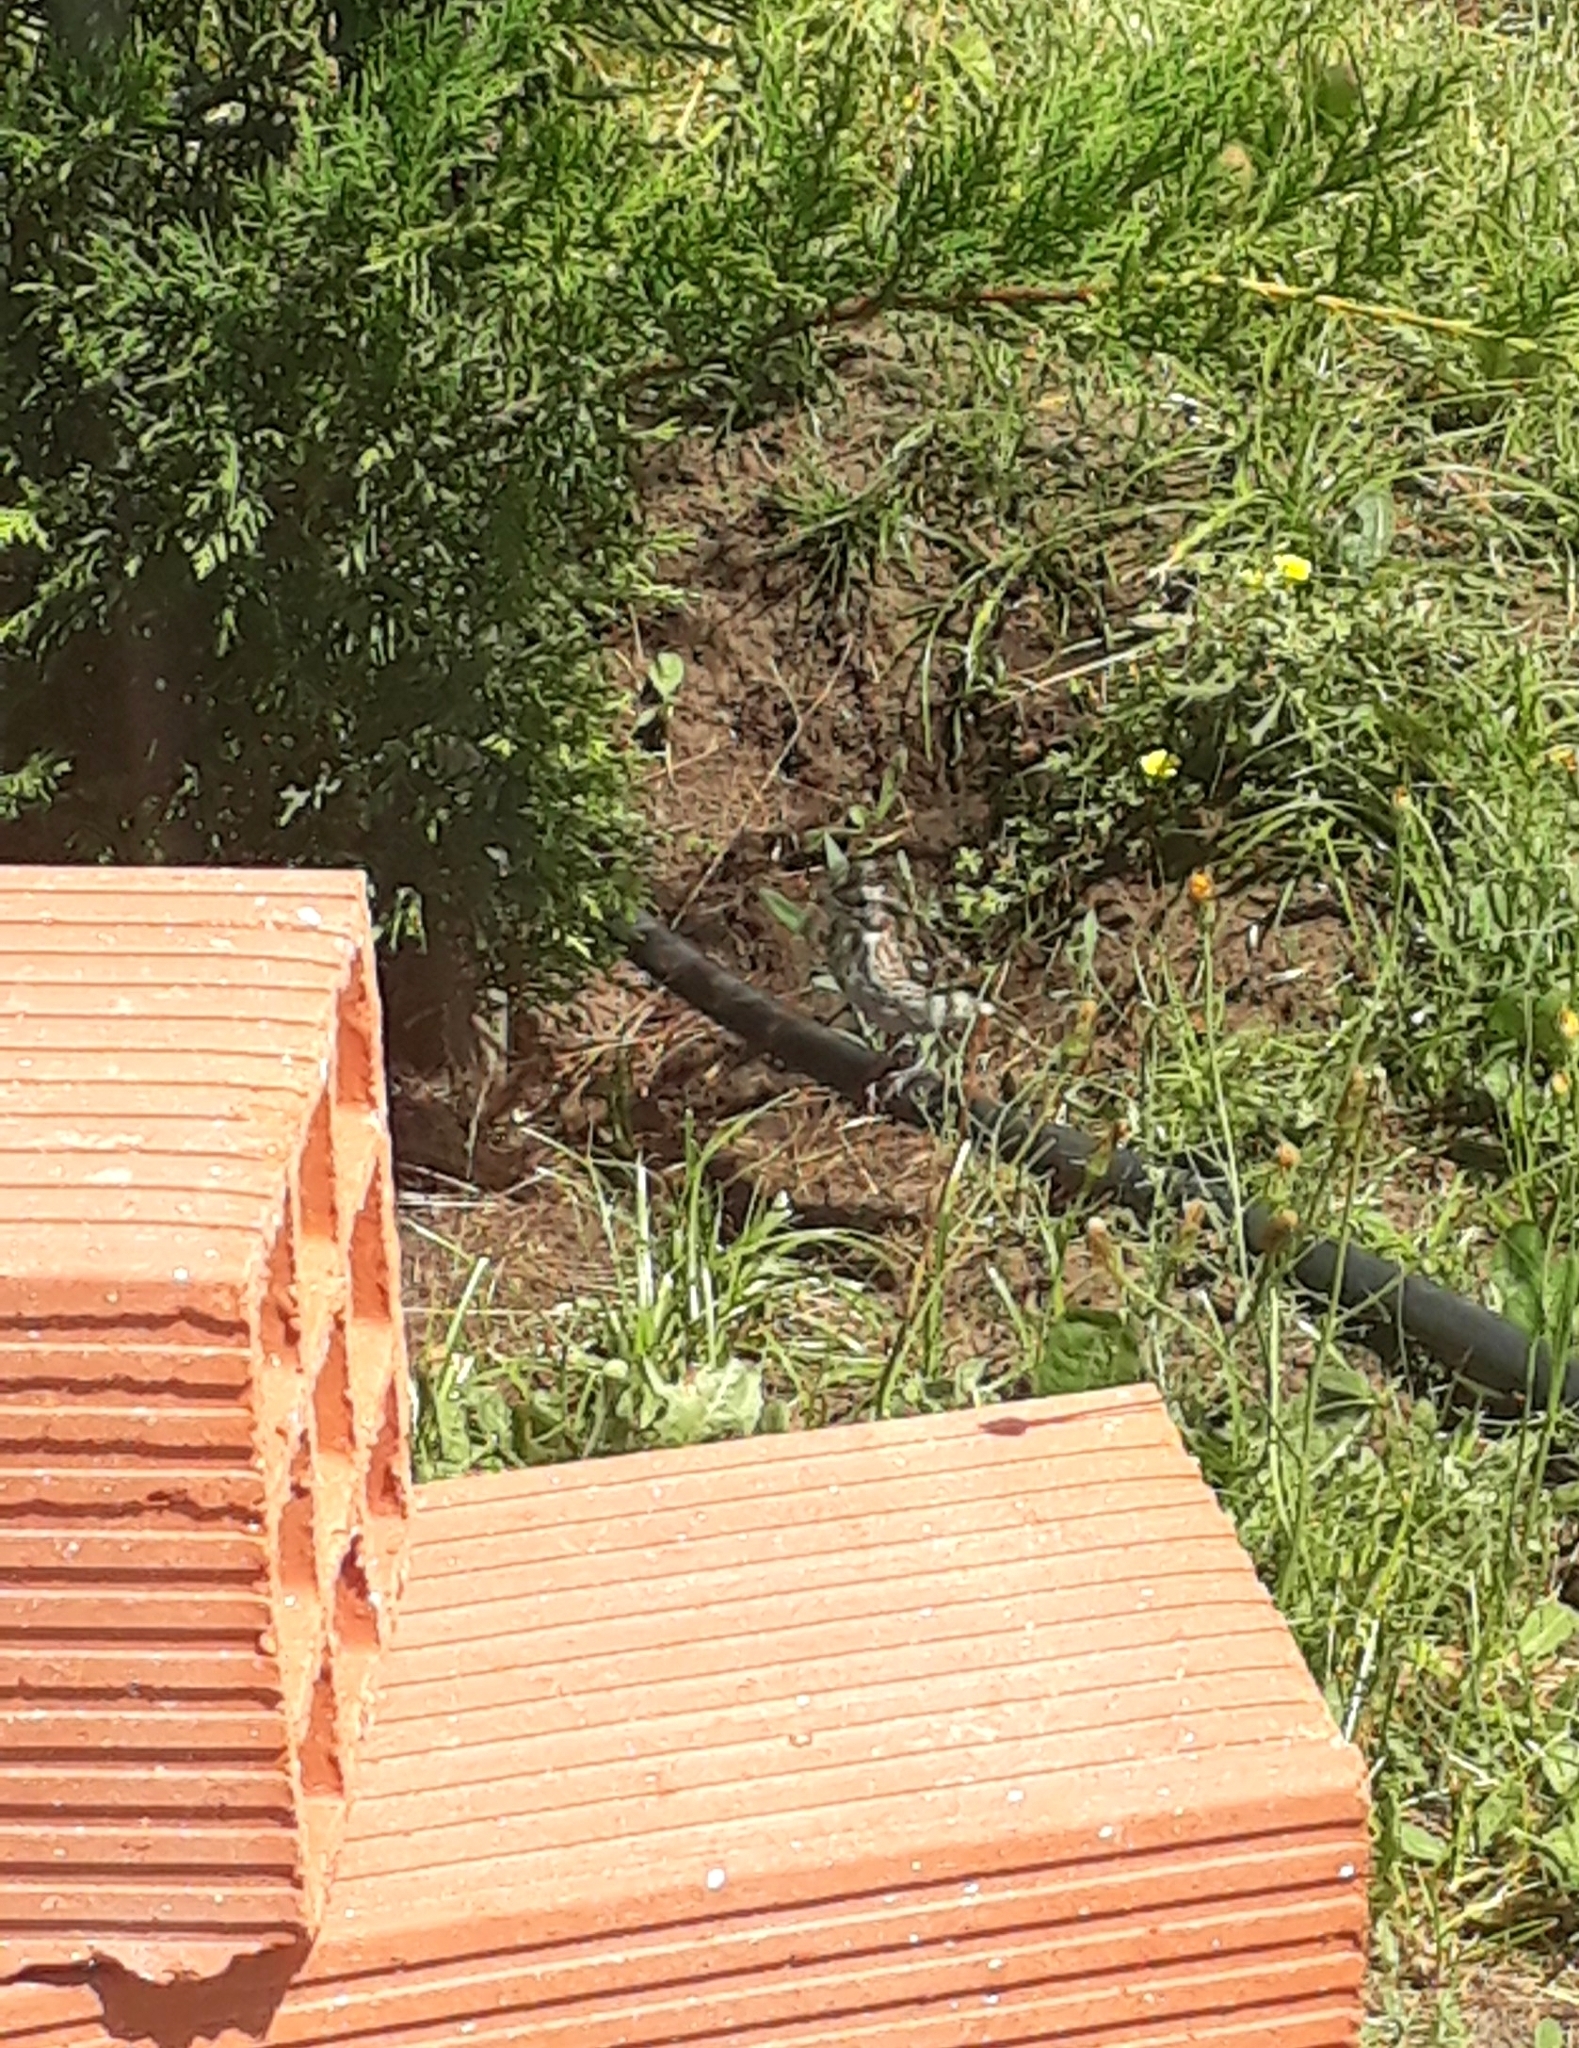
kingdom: Animalia
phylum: Chordata
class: Aves
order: Passeriformes
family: Passerellidae
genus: Zonotrichia
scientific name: Zonotrichia capensis
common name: Rufous-collared sparrow
